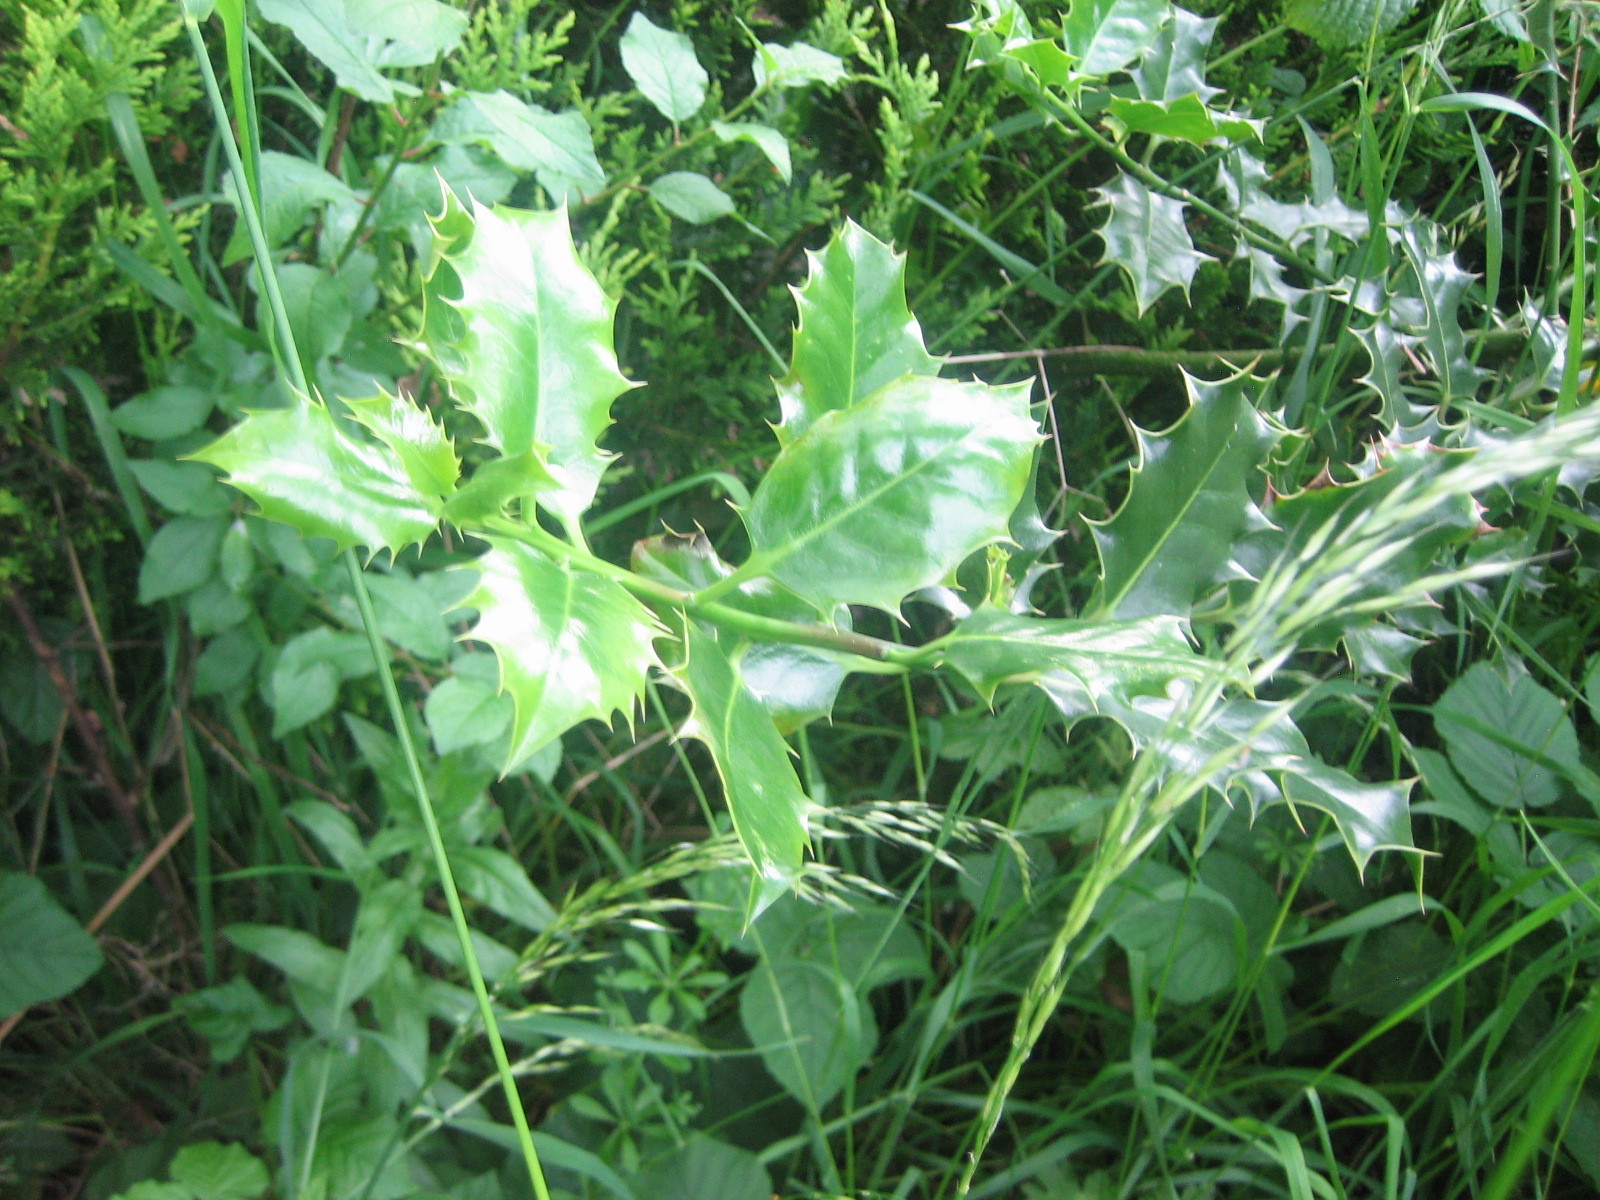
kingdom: Plantae
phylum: Tracheophyta
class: Magnoliopsida
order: Aquifoliales
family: Aquifoliaceae
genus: Ilex
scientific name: Ilex aquifolium
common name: English holly
